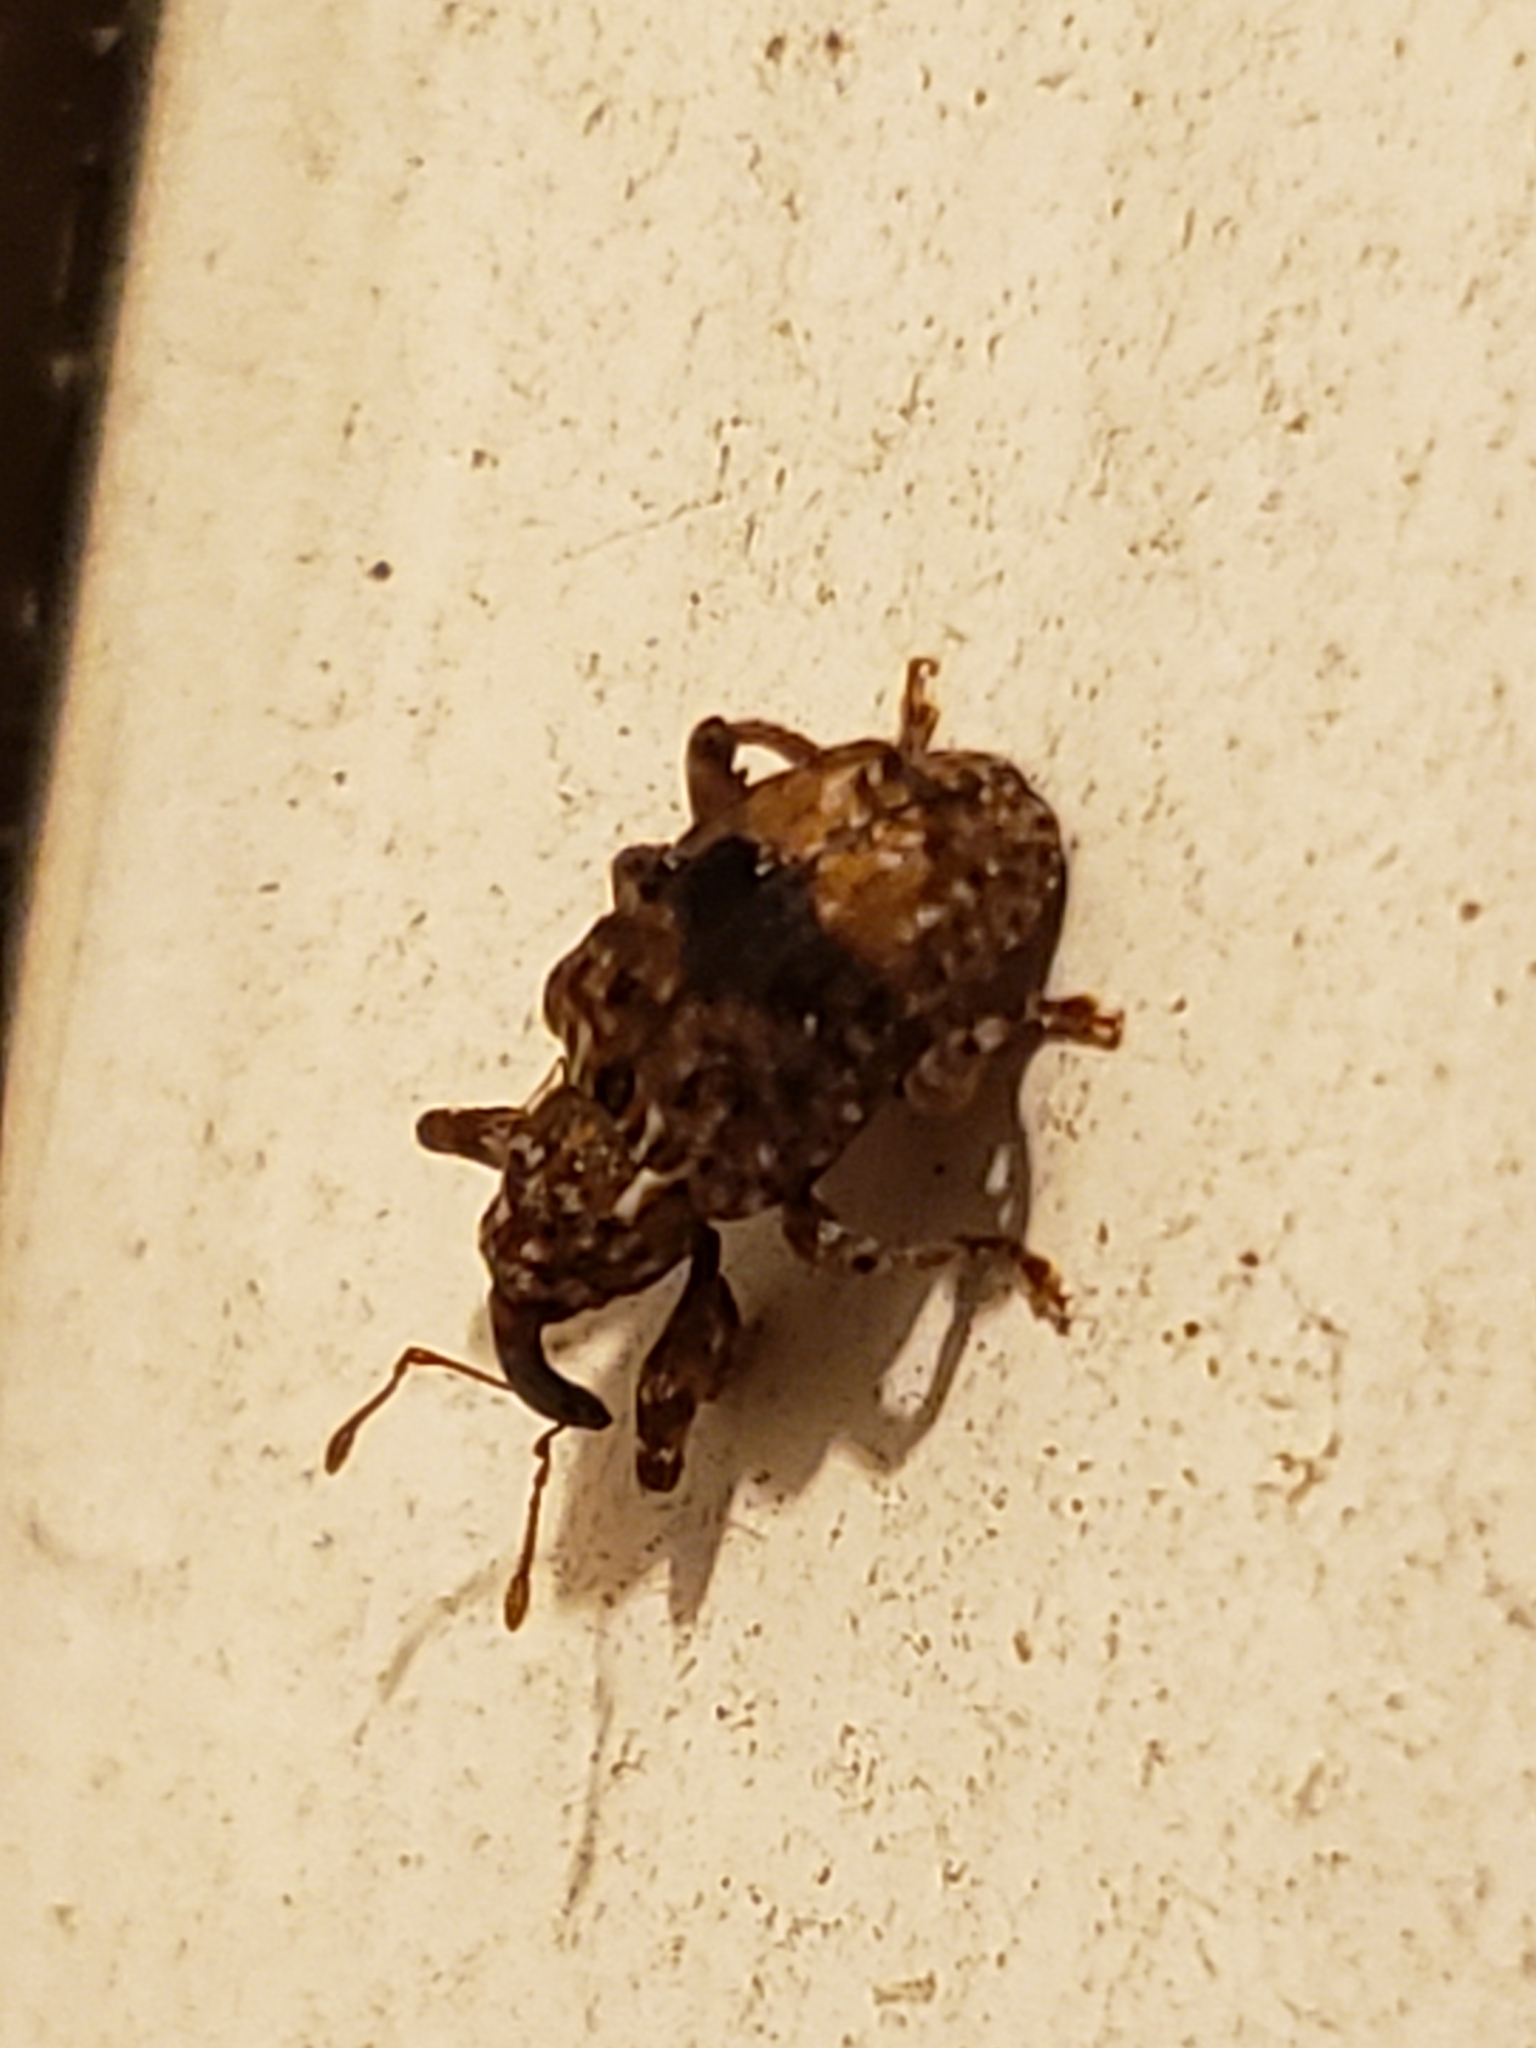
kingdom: Animalia
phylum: Arthropoda
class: Insecta
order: Coleoptera
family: Curculionidae
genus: Conotrachelus
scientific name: Conotrachelus nenuphar
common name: Plum curculio
